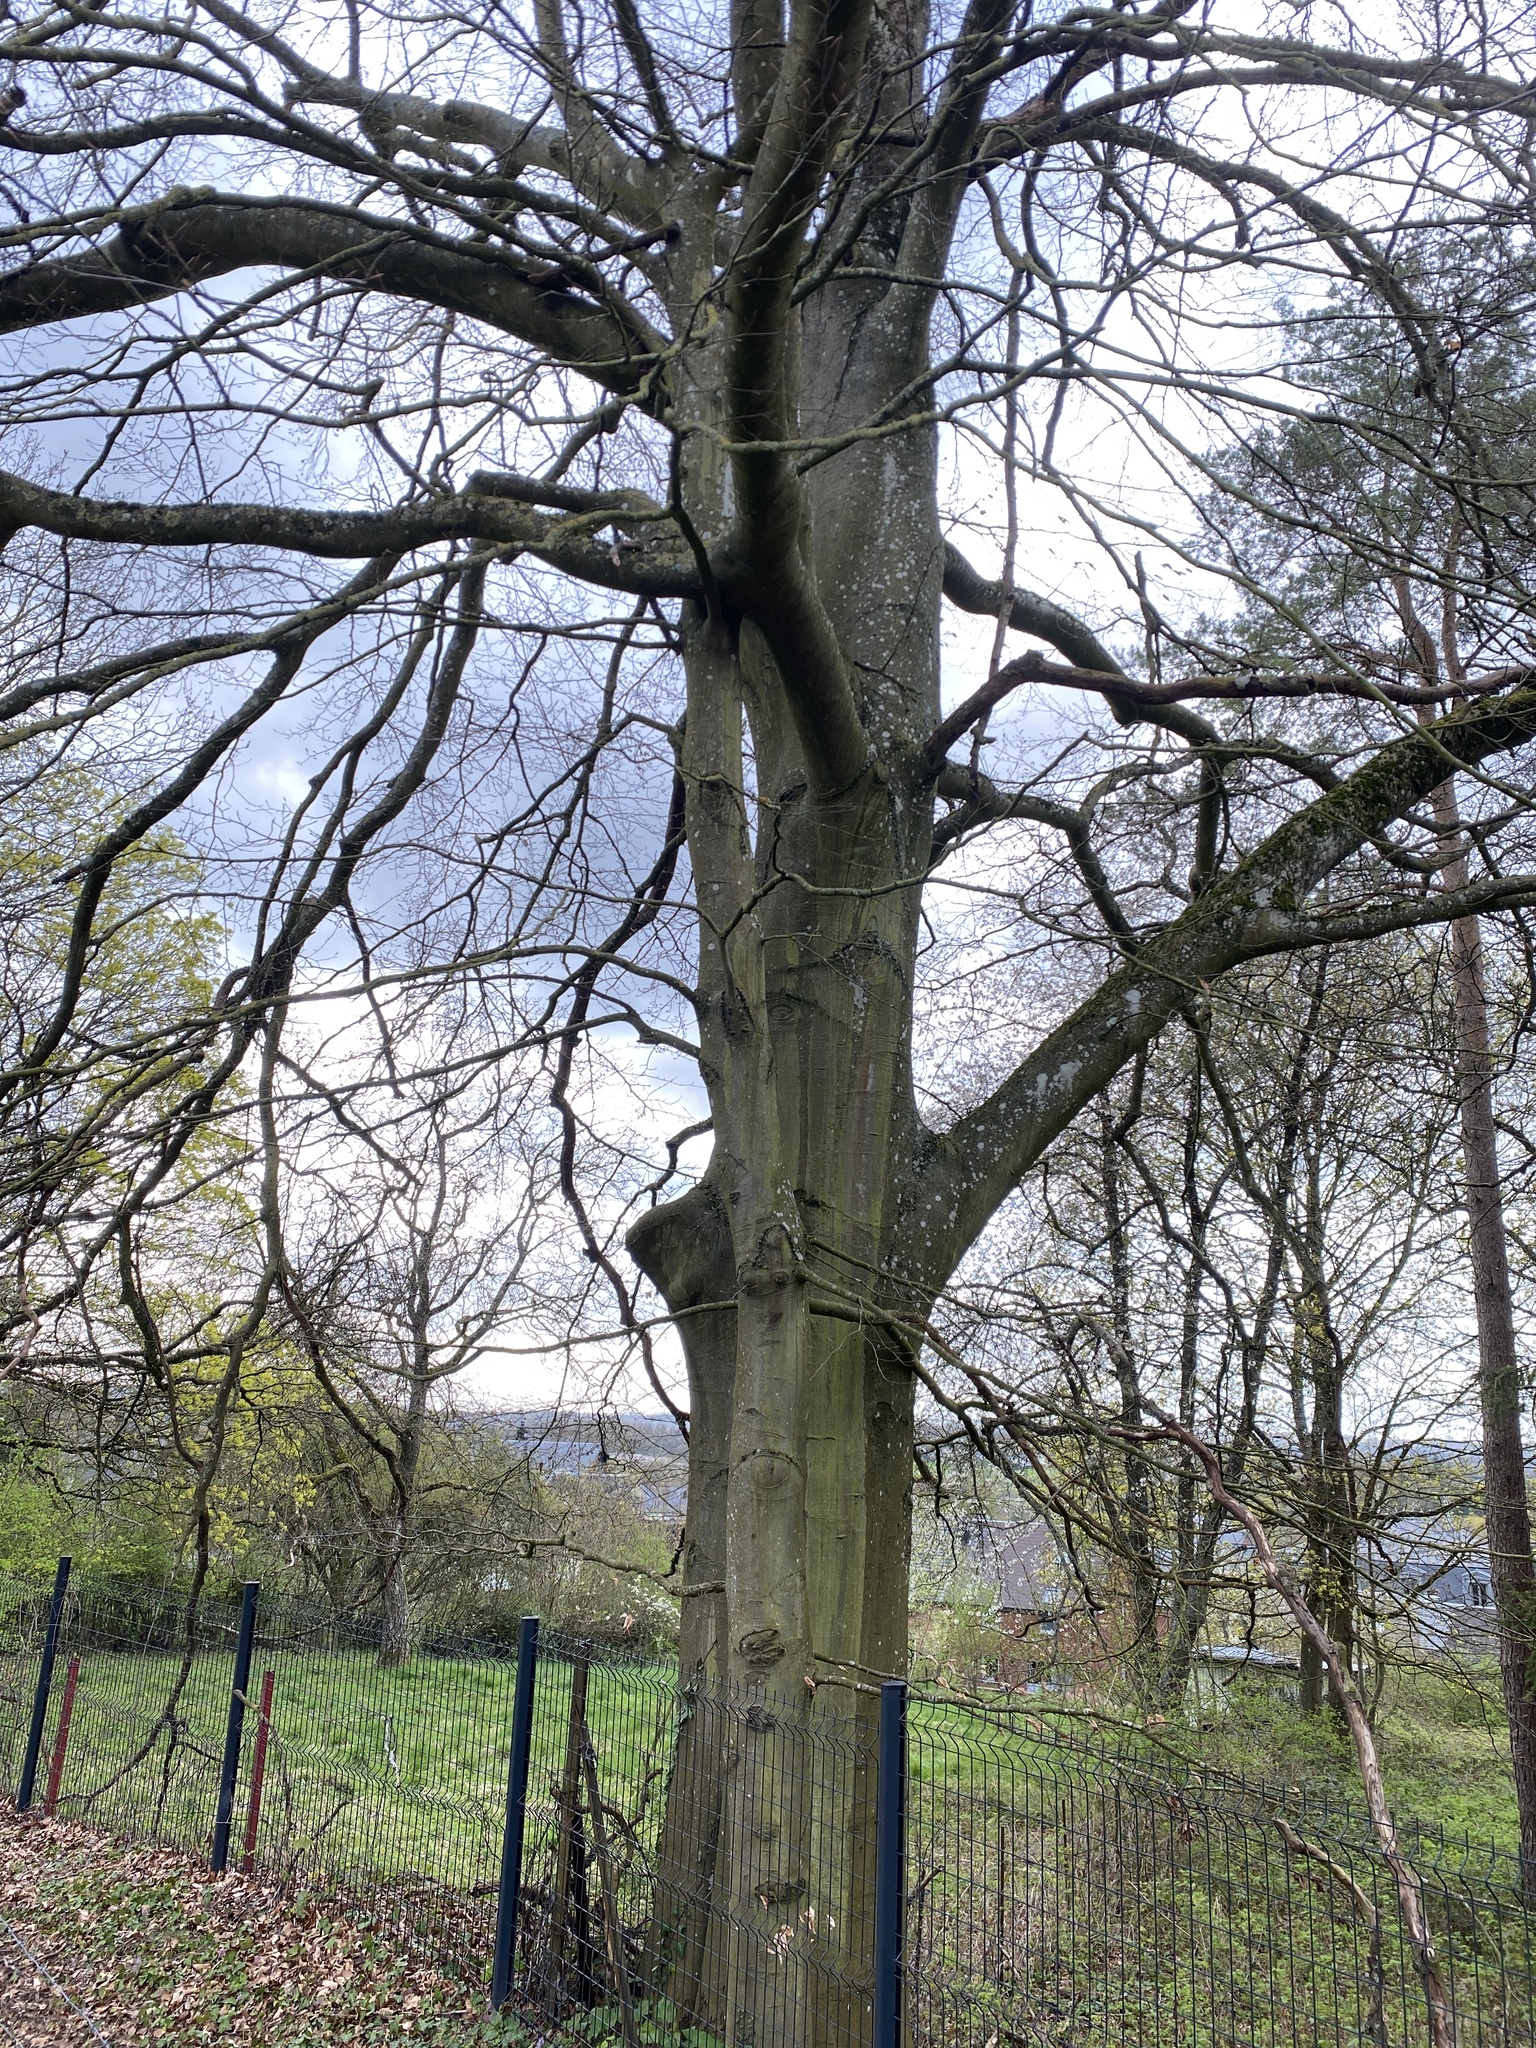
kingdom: Plantae
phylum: Tracheophyta
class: Magnoliopsida
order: Fagales
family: Fagaceae
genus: Fagus
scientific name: Fagus sylvatica
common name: Beech
